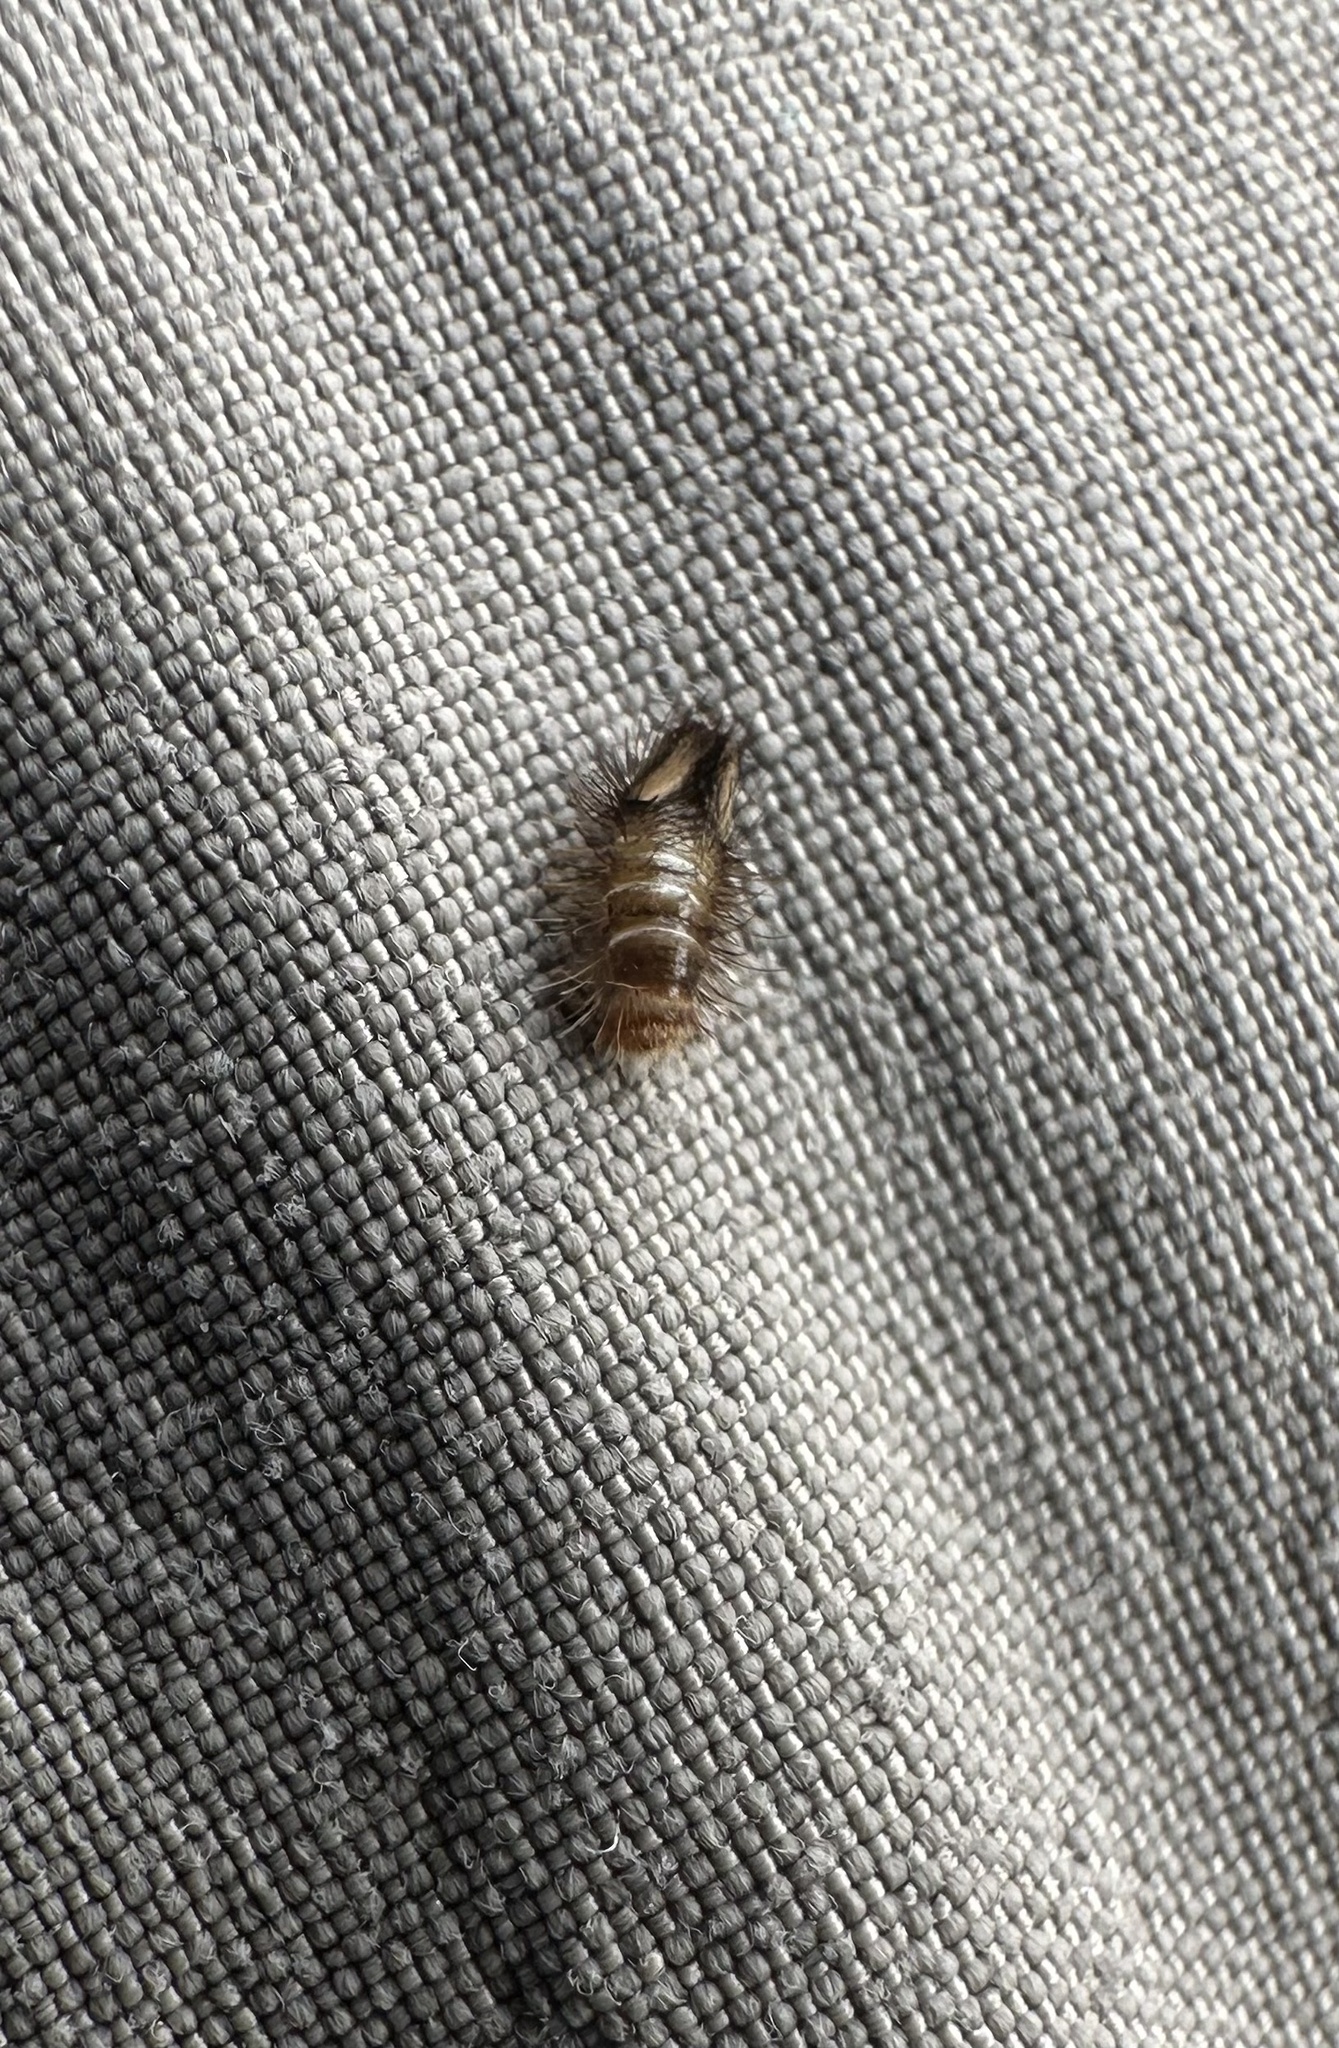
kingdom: Animalia
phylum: Arthropoda
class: Insecta
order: Coleoptera
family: Dermestidae
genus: Anthrenus
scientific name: Anthrenus verbasci
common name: Varied carpet beetle
